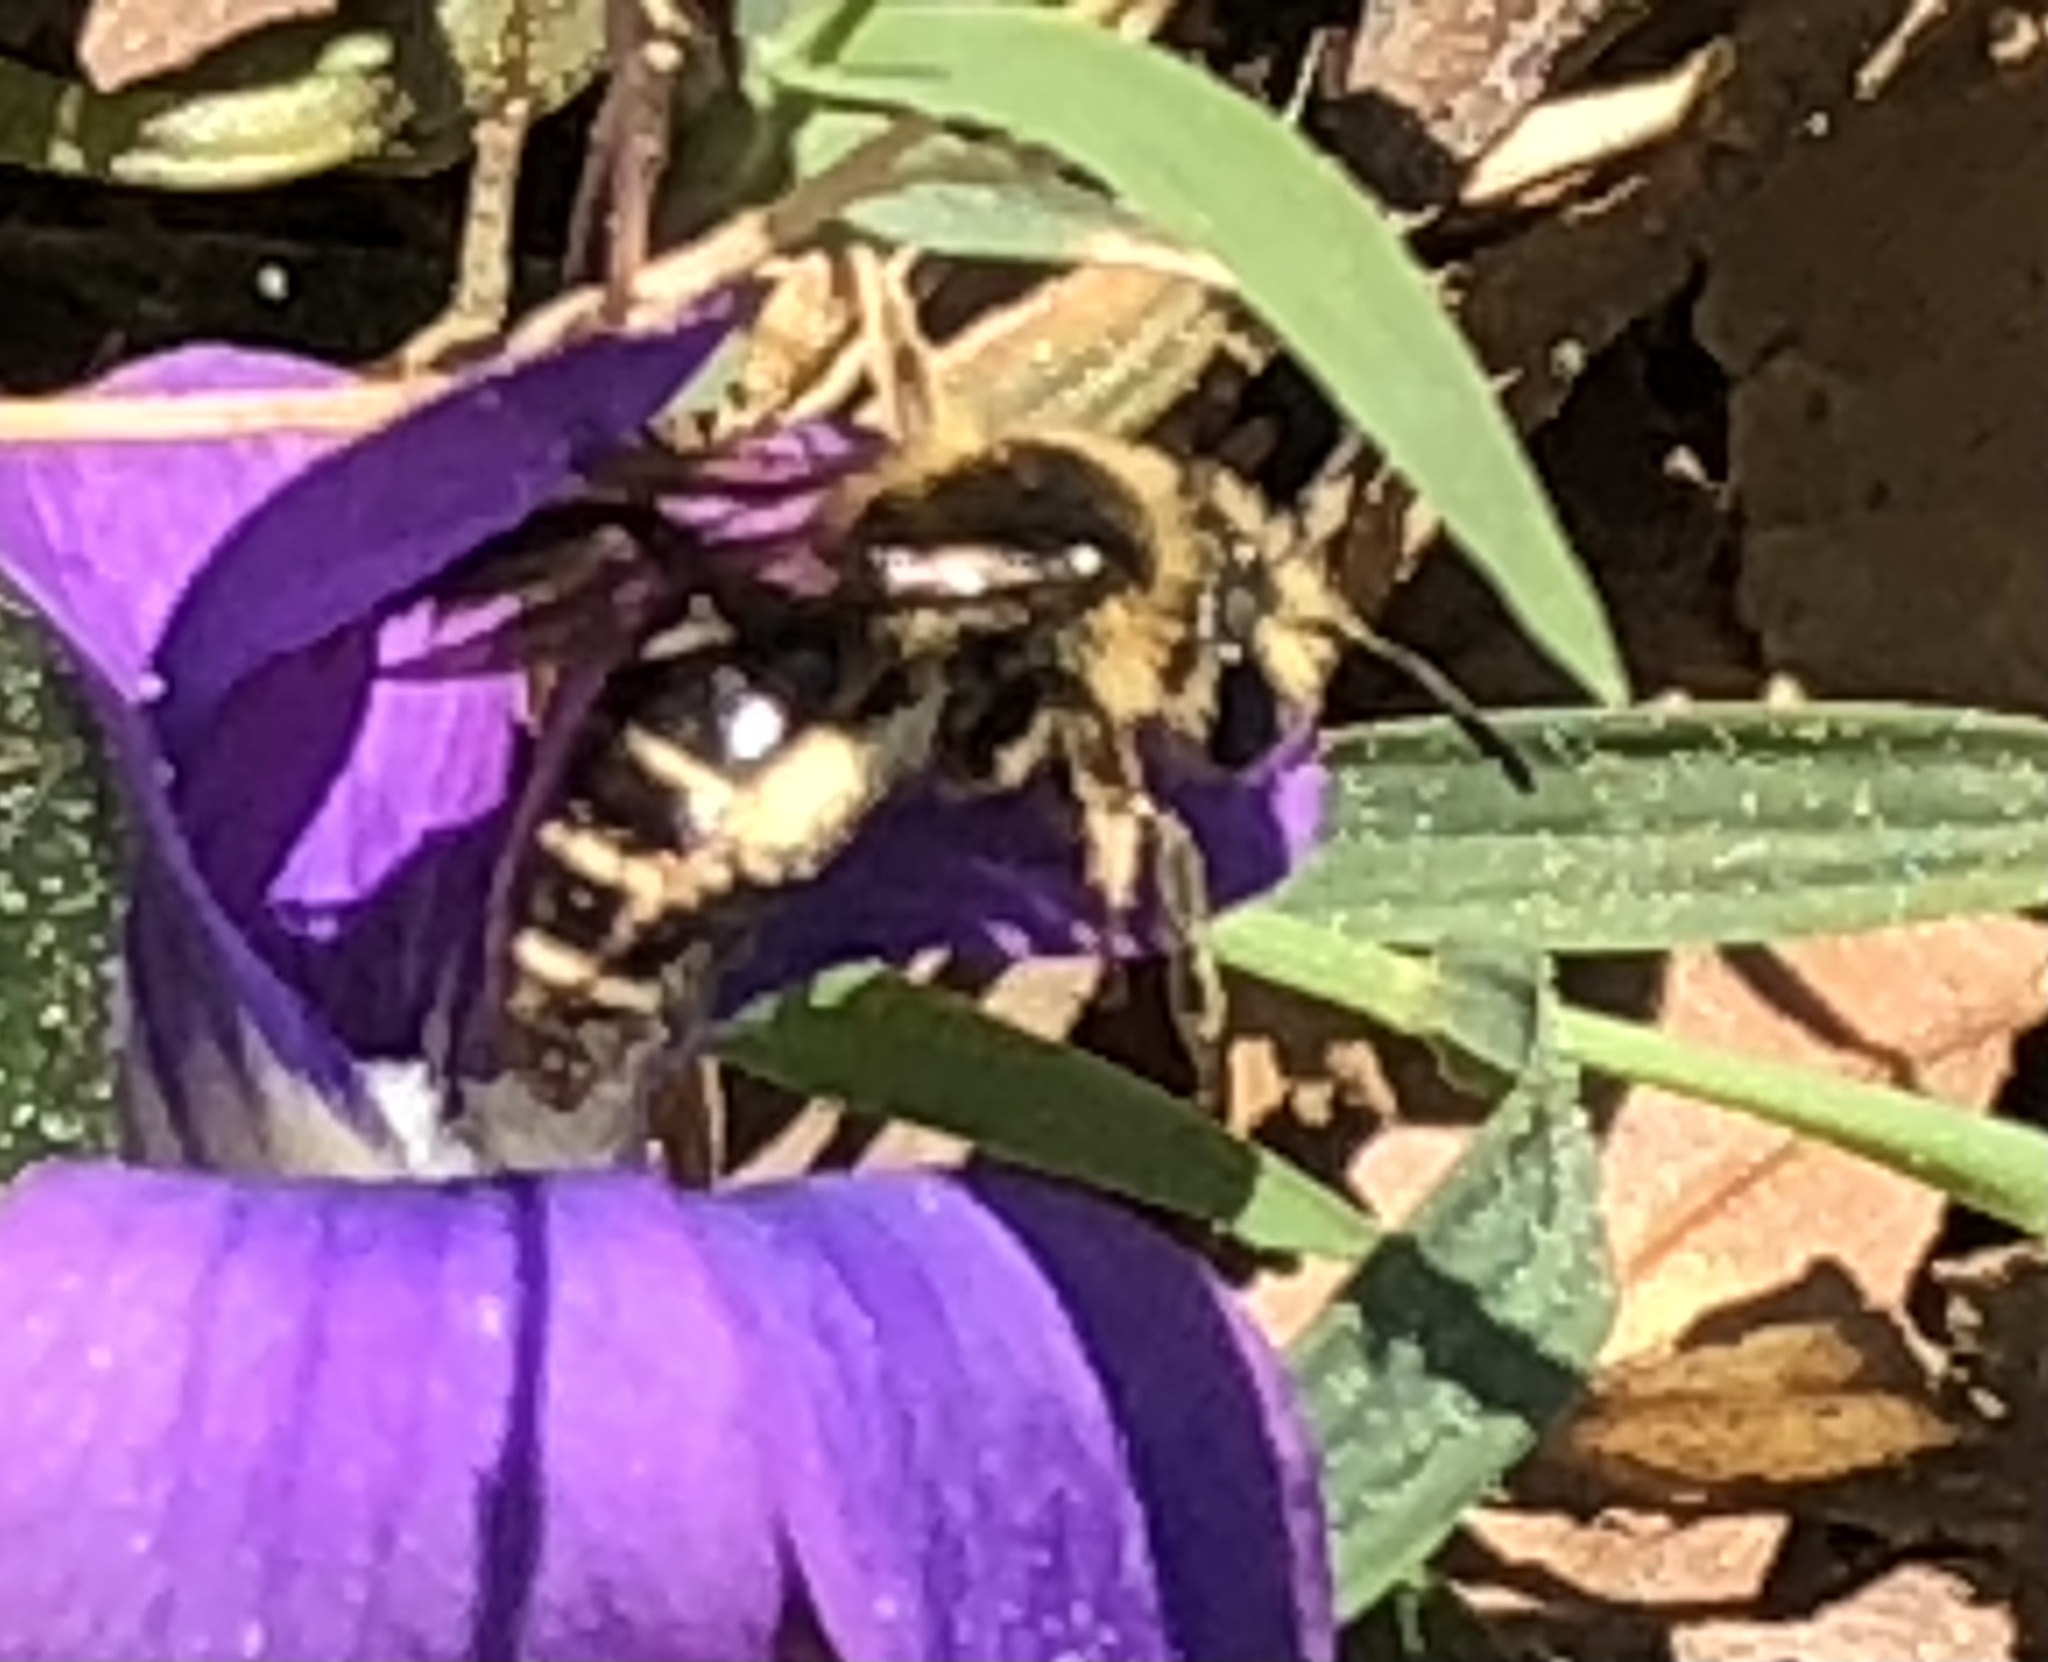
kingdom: Animalia
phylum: Arthropoda
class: Insecta
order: Hymenoptera
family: Andrenidae
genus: Andrena
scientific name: Andrena violae
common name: Violet miner
